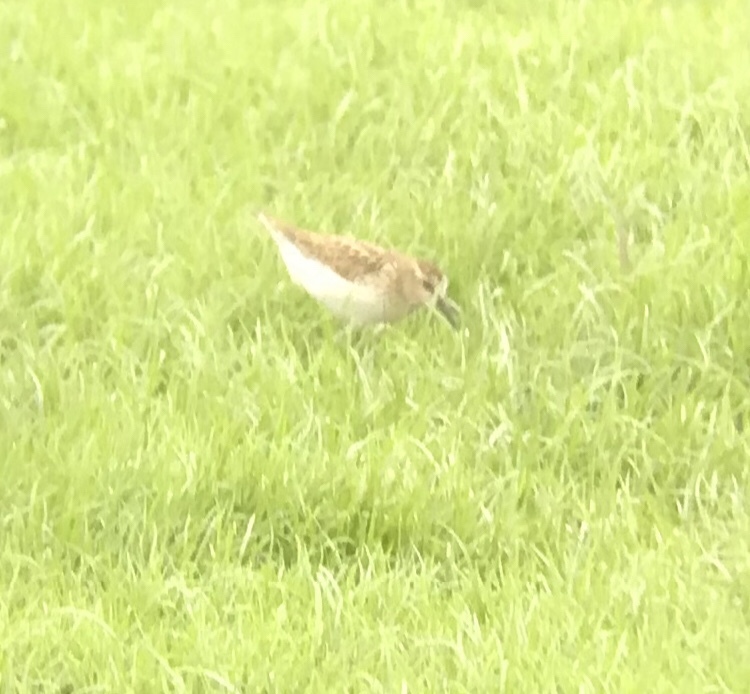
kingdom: Animalia
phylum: Chordata
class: Aves
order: Charadriiformes
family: Scolopacidae
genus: Calidris
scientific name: Calidris minutilla
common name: Least sandpiper
